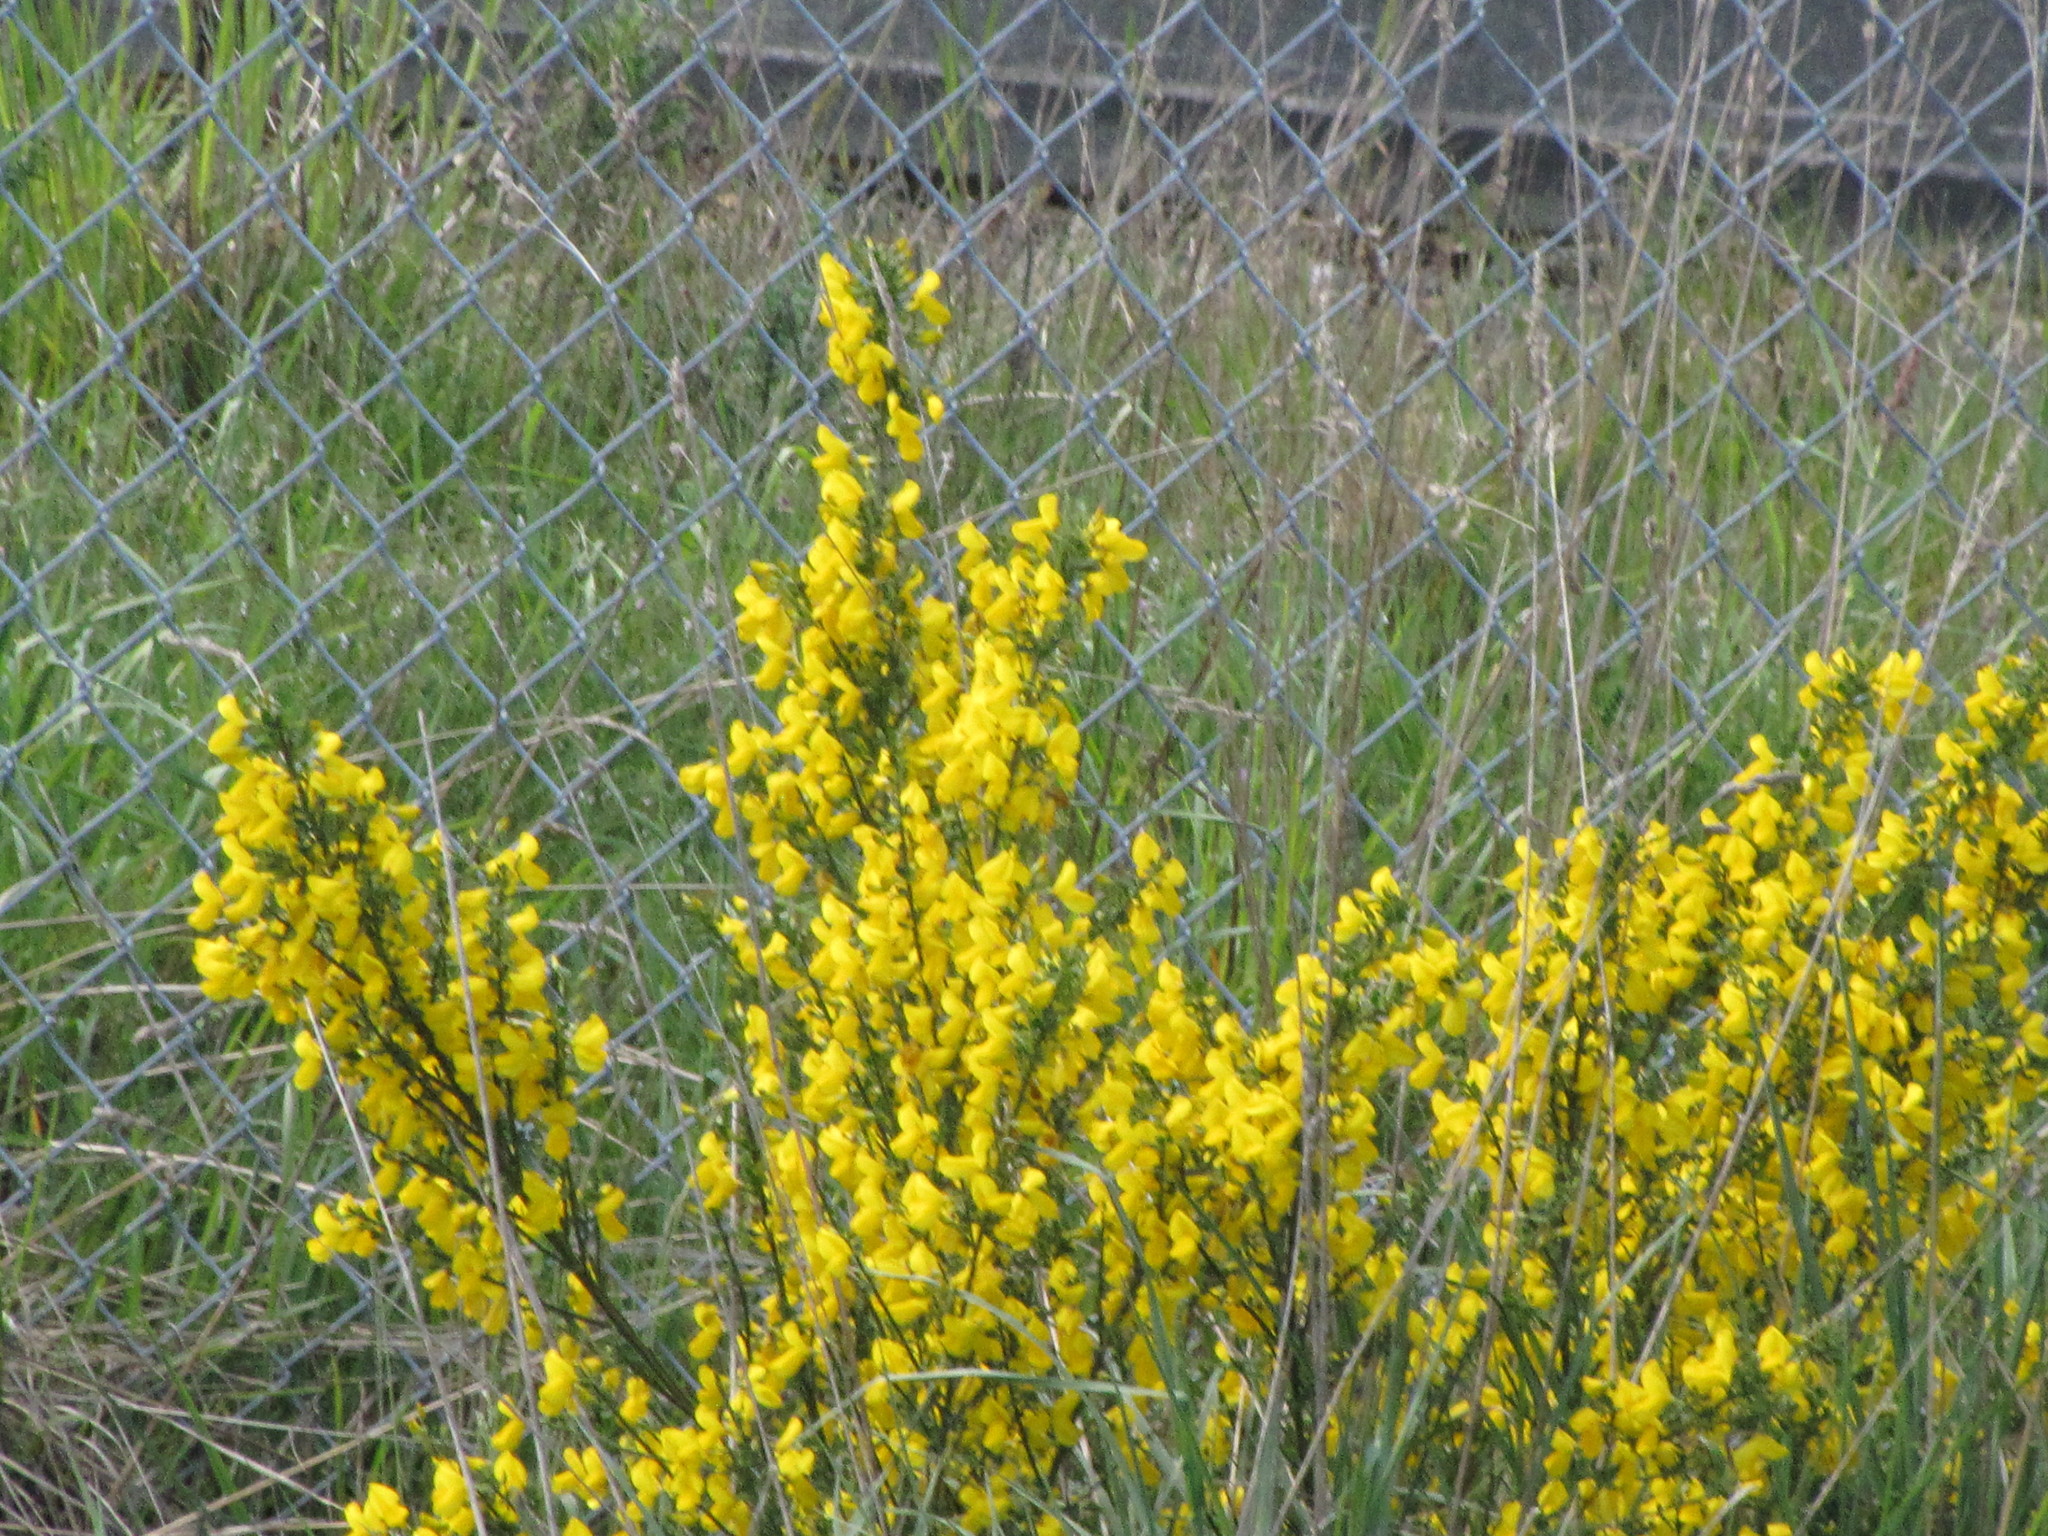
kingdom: Plantae
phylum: Tracheophyta
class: Magnoliopsida
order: Fabales
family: Fabaceae
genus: Cytisus
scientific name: Cytisus scoparius
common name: Scotch broom
